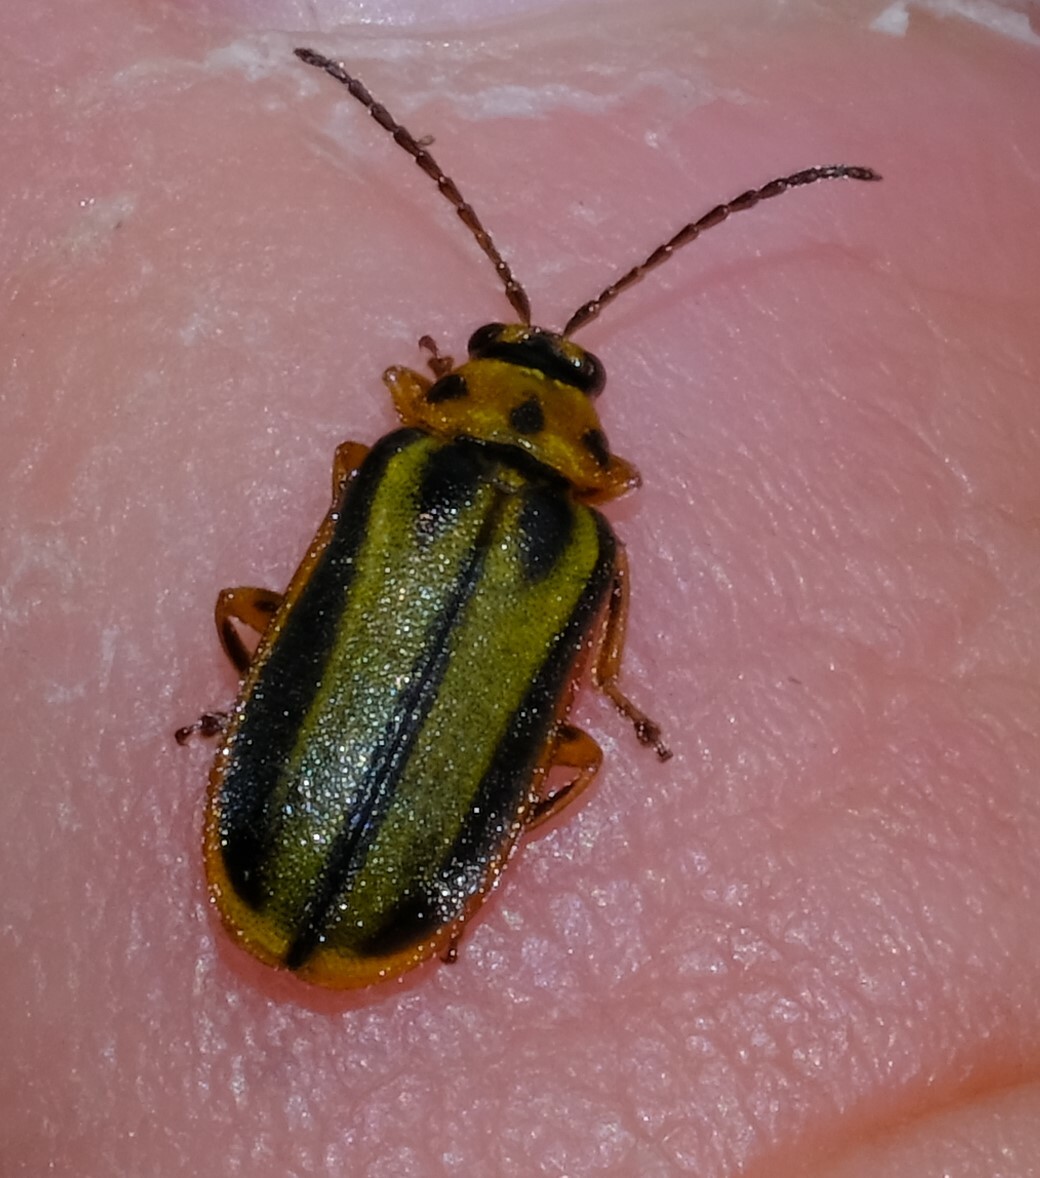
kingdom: Animalia
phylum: Arthropoda
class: Insecta
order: Coleoptera
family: Chrysomelidae
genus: Xanthogaleruca
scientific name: Xanthogaleruca luteola
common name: Elm leaf beetle
